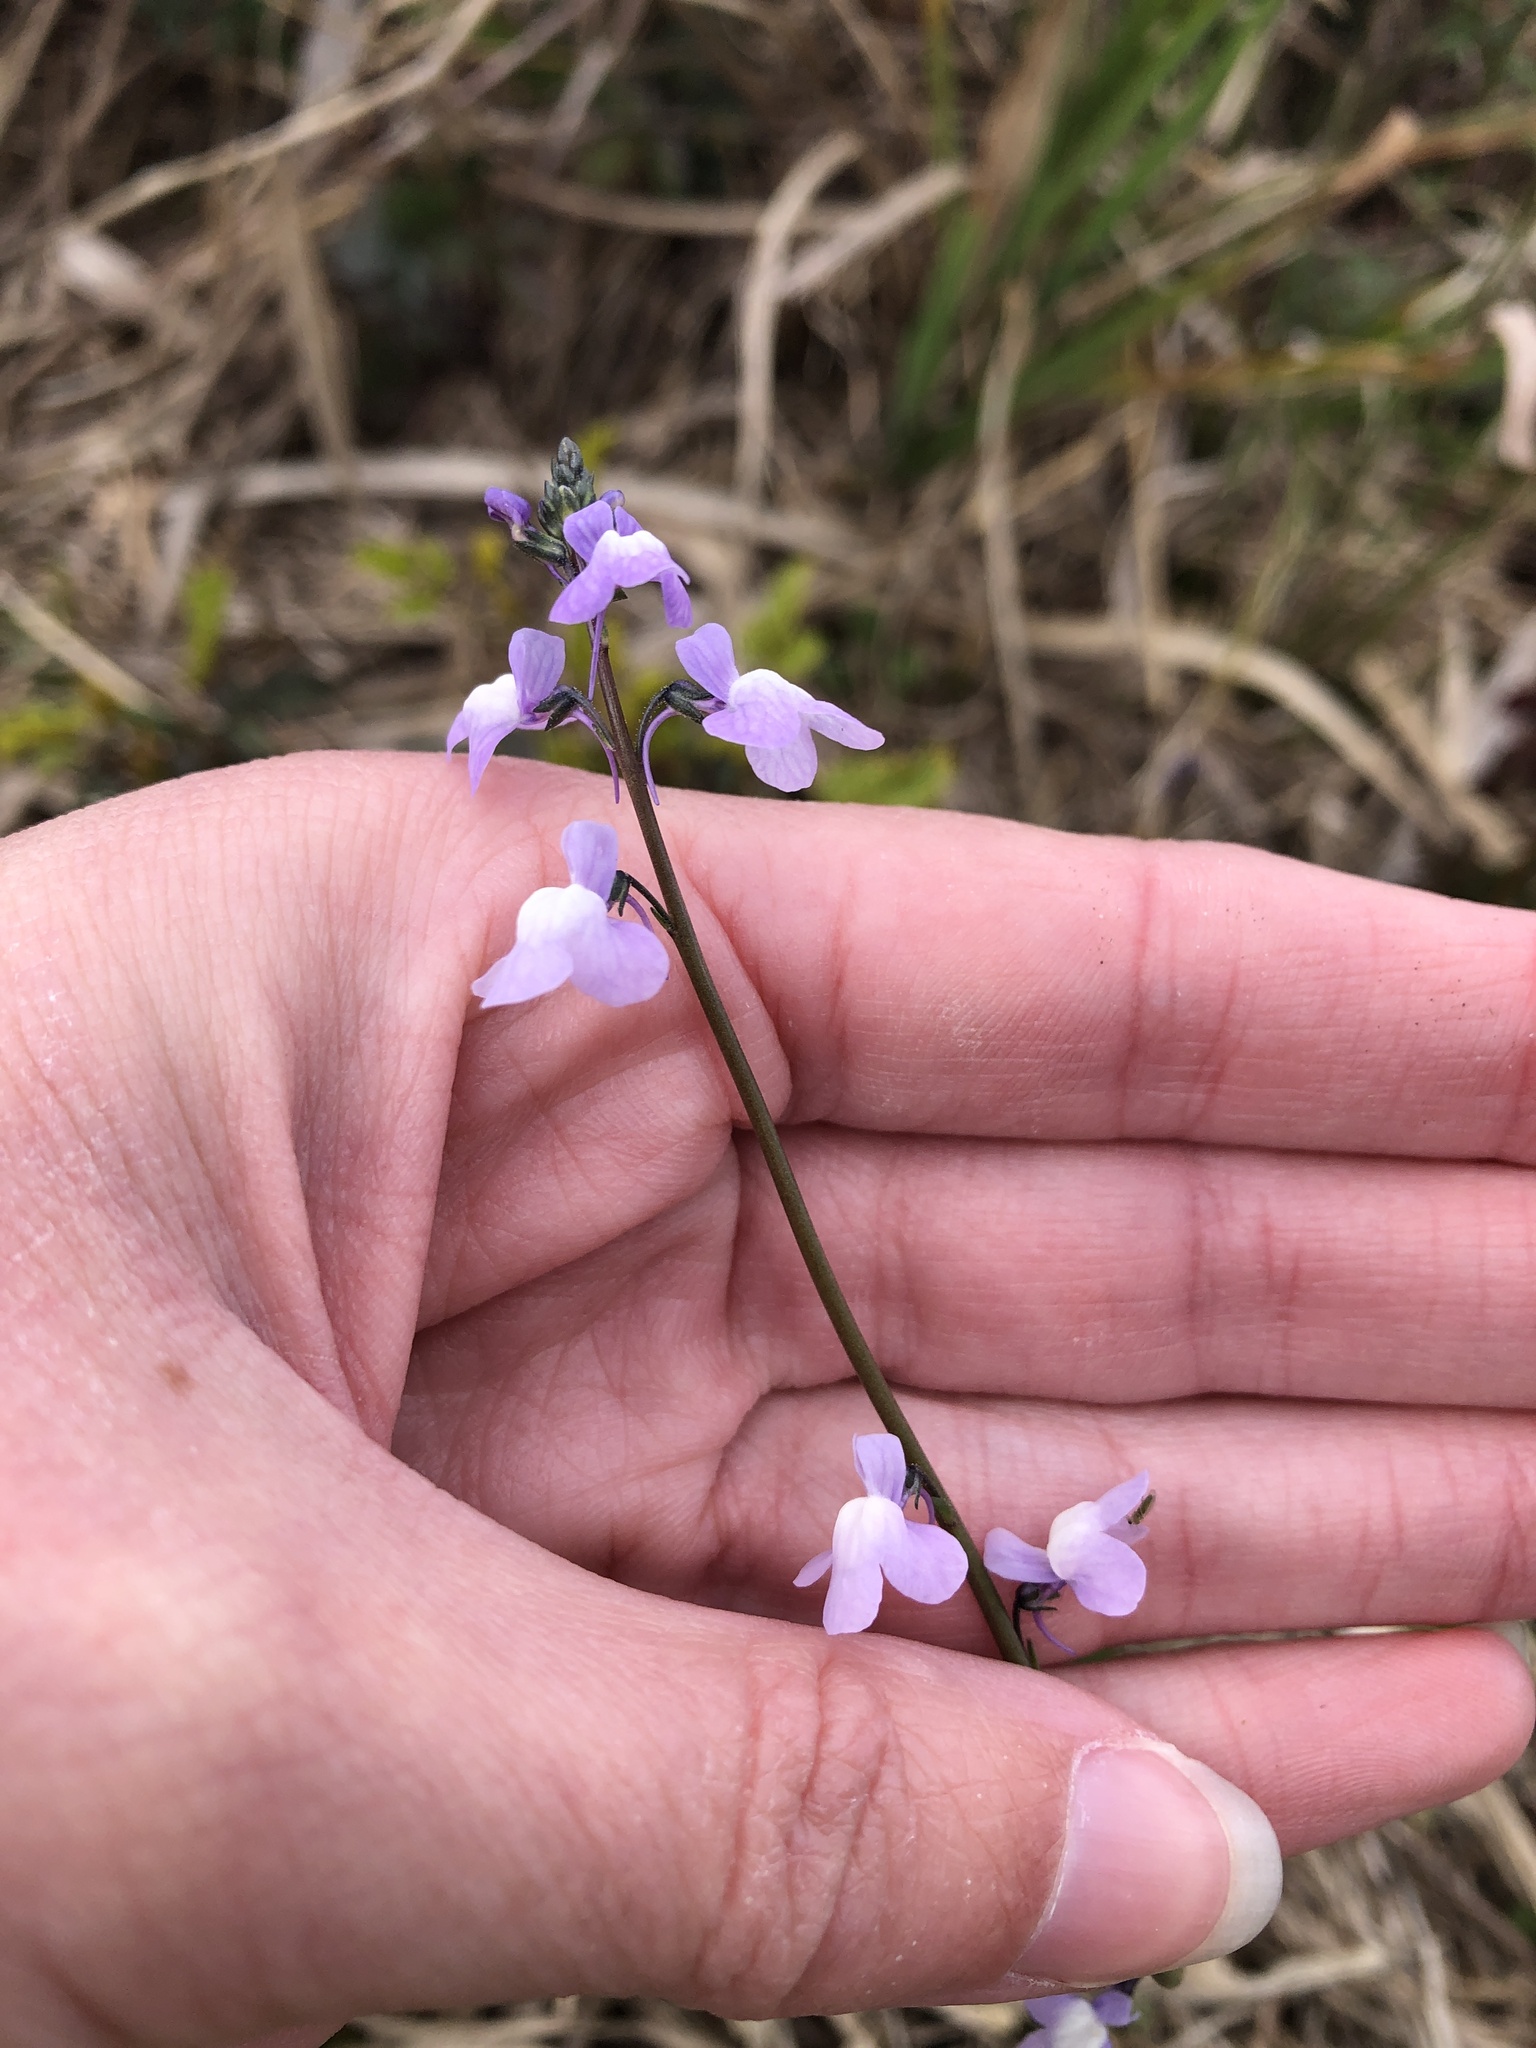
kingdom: Plantae
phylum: Tracheophyta
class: Magnoliopsida
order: Lamiales
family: Plantaginaceae
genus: Nuttallanthus
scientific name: Nuttallanthus canadensis
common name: Blue toadflax
